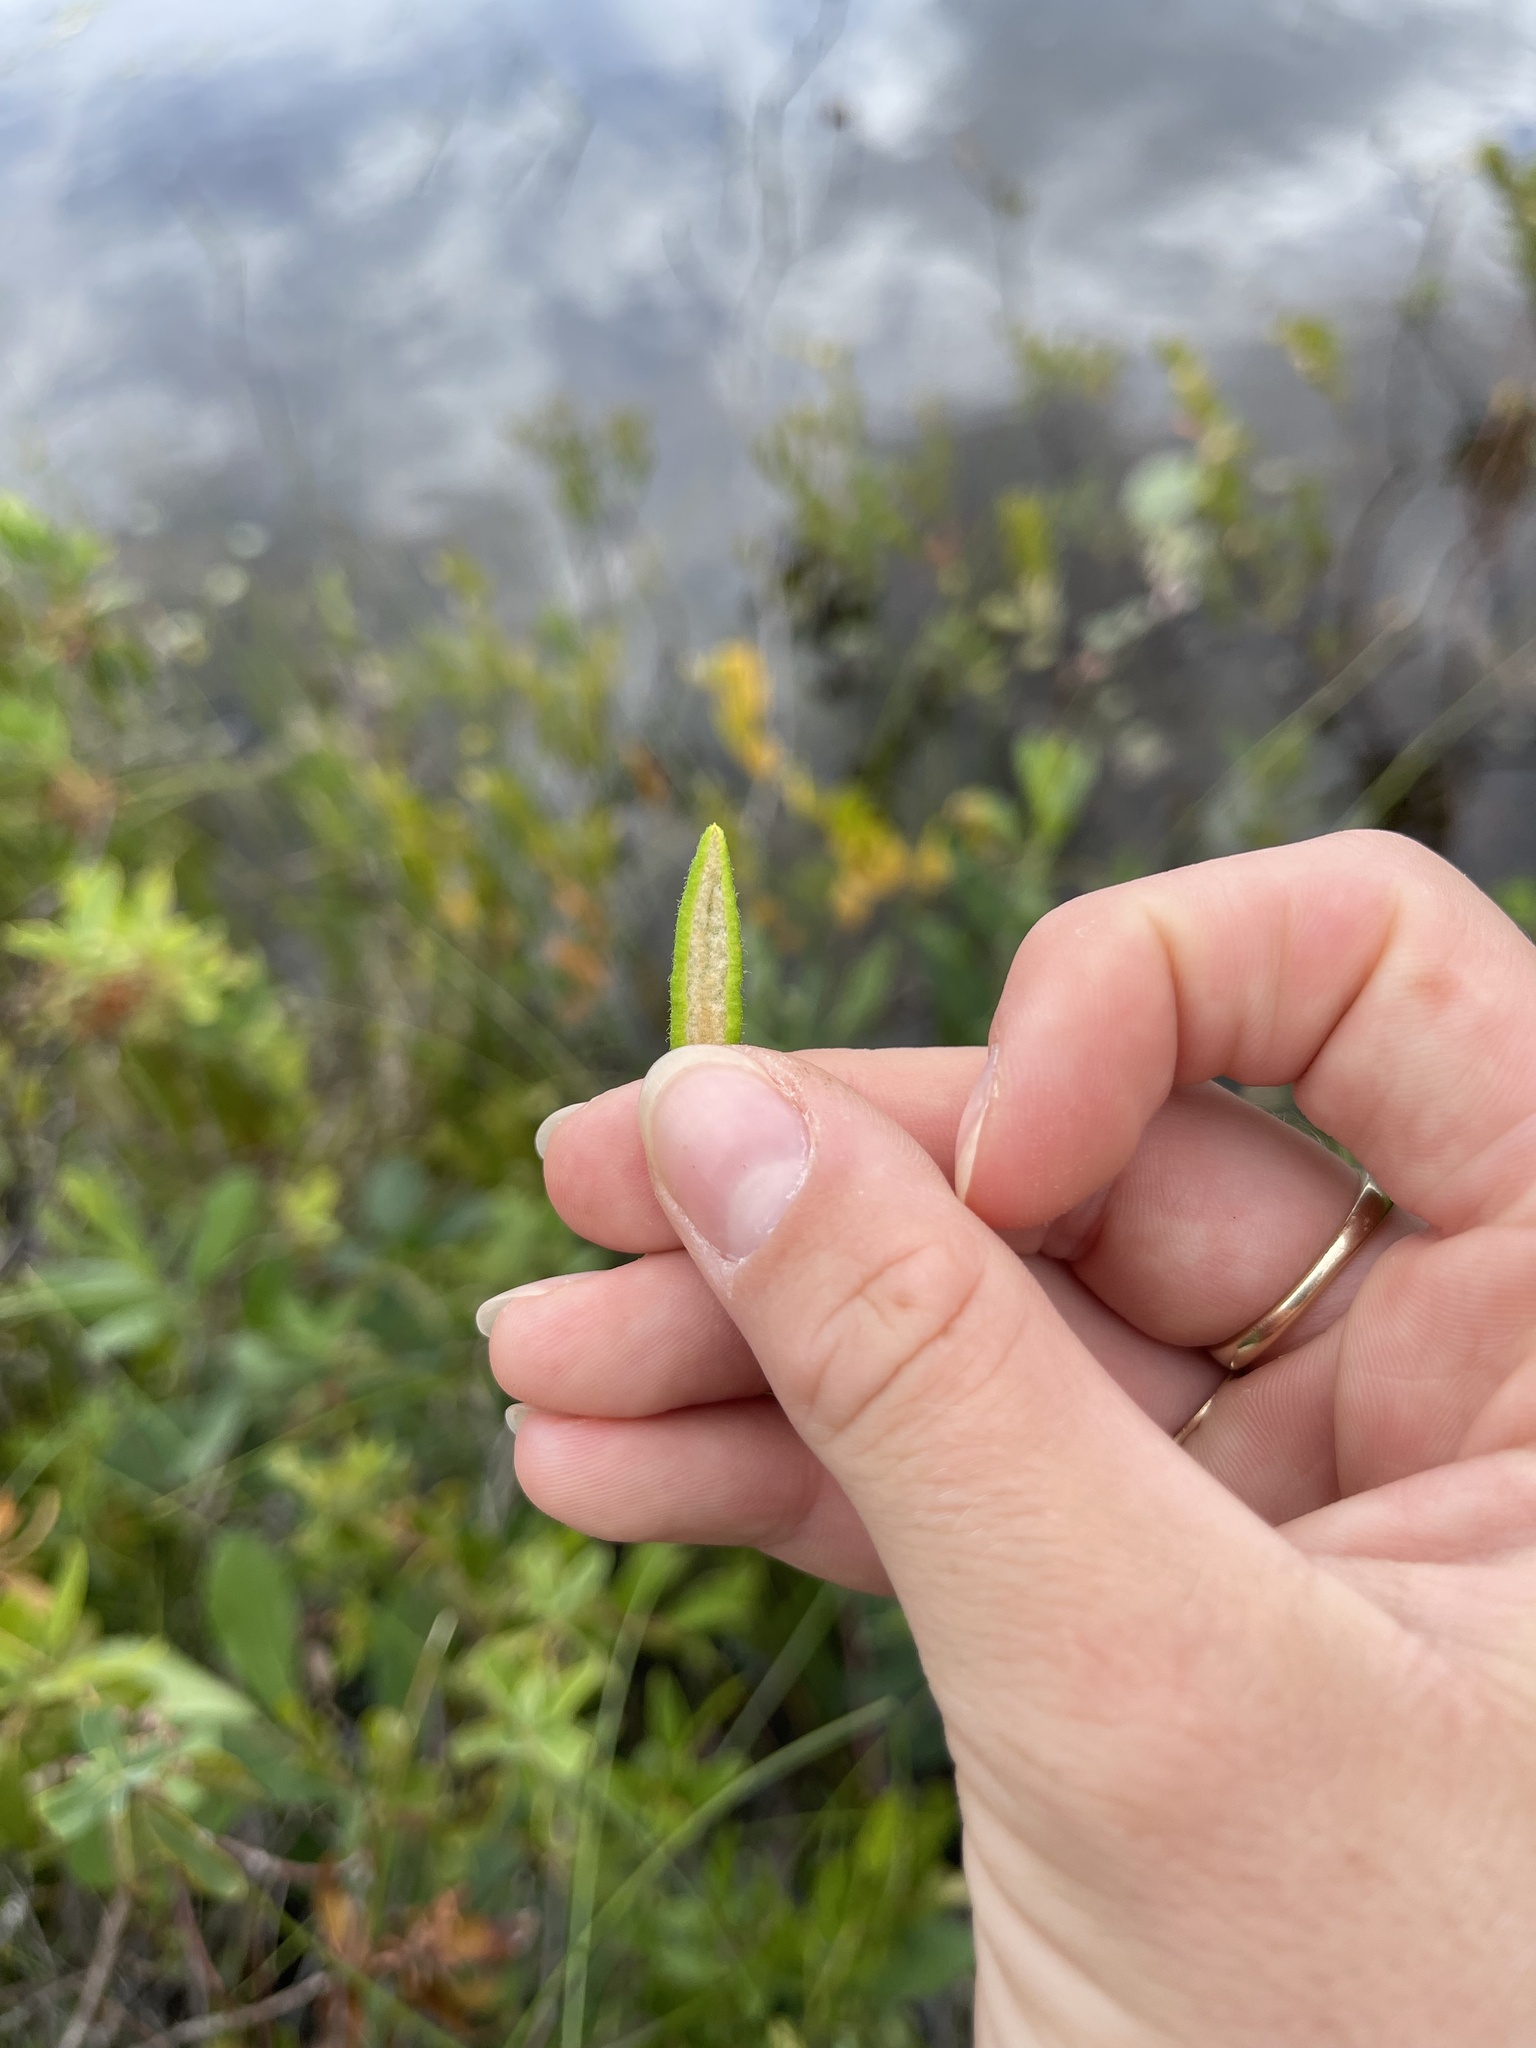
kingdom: Plantae
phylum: Tracheophyta
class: Magnoliopsida
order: Ericales
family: Ericaceae
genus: Rhododendron
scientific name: Rhododendron groenlandicum
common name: Bog labrador tea
